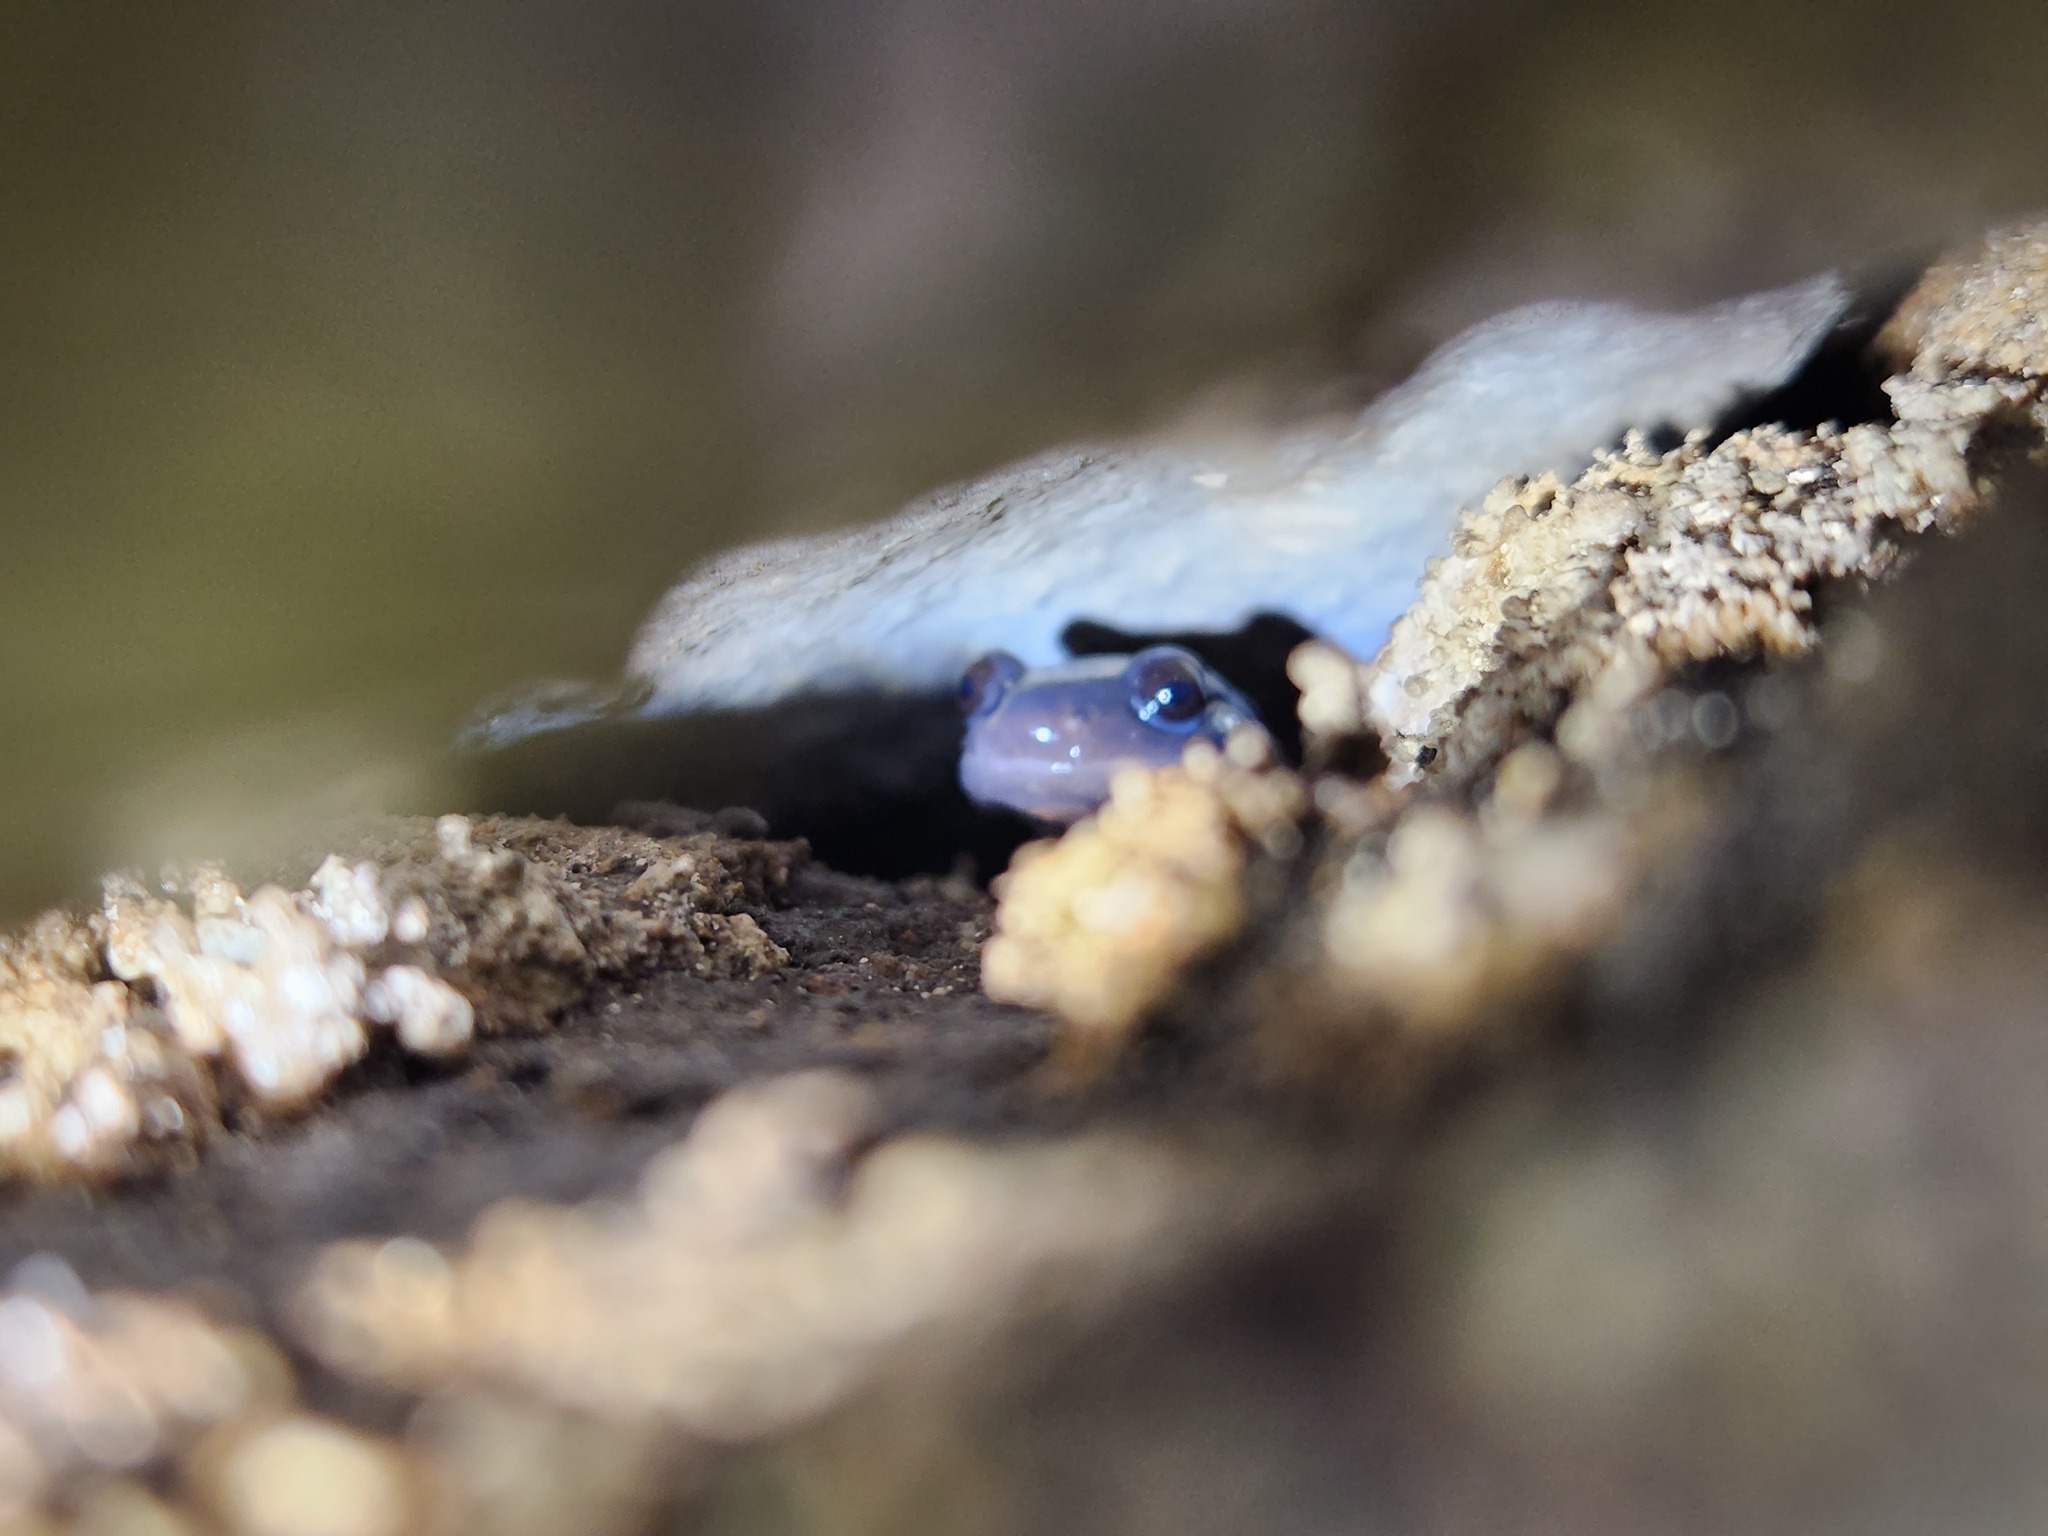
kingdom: Animalia
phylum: Chordata
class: Amphibia
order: Caudata
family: Plethodontidae
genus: Plethodon
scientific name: Plethodon glutinosus
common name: Northern slimy salamander
